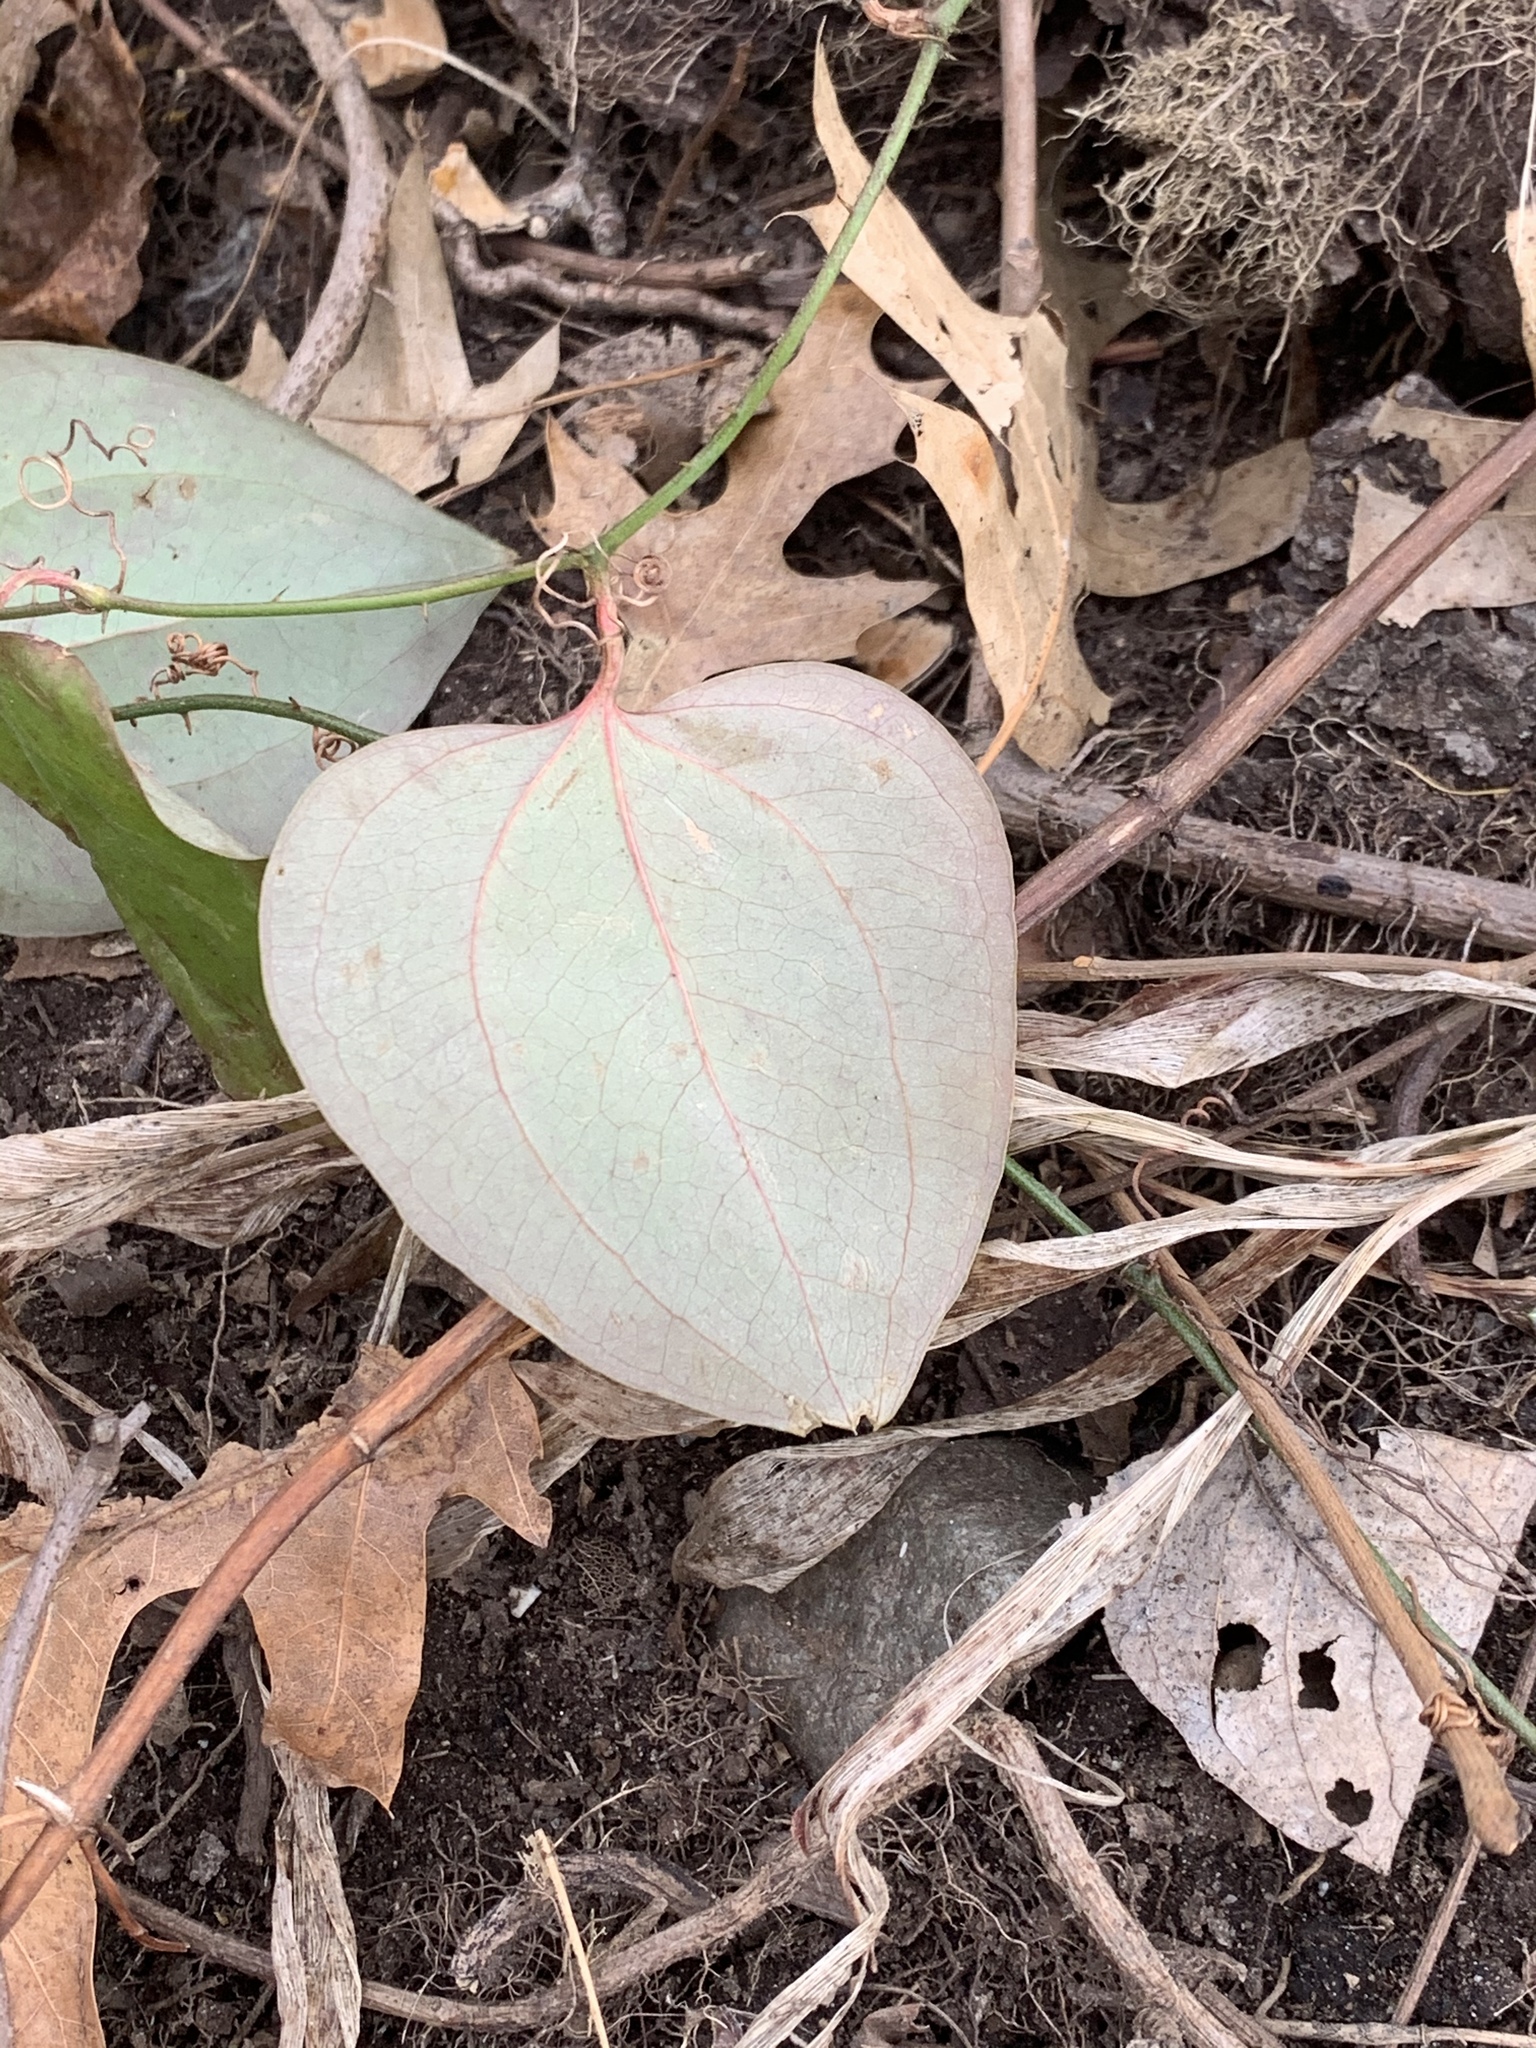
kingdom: Plantae
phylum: Tracheophyta
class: Liliopsida
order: Liliales
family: Smilacaceae
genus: Smilax
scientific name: Smilax glauca
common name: Cat greenbrier
